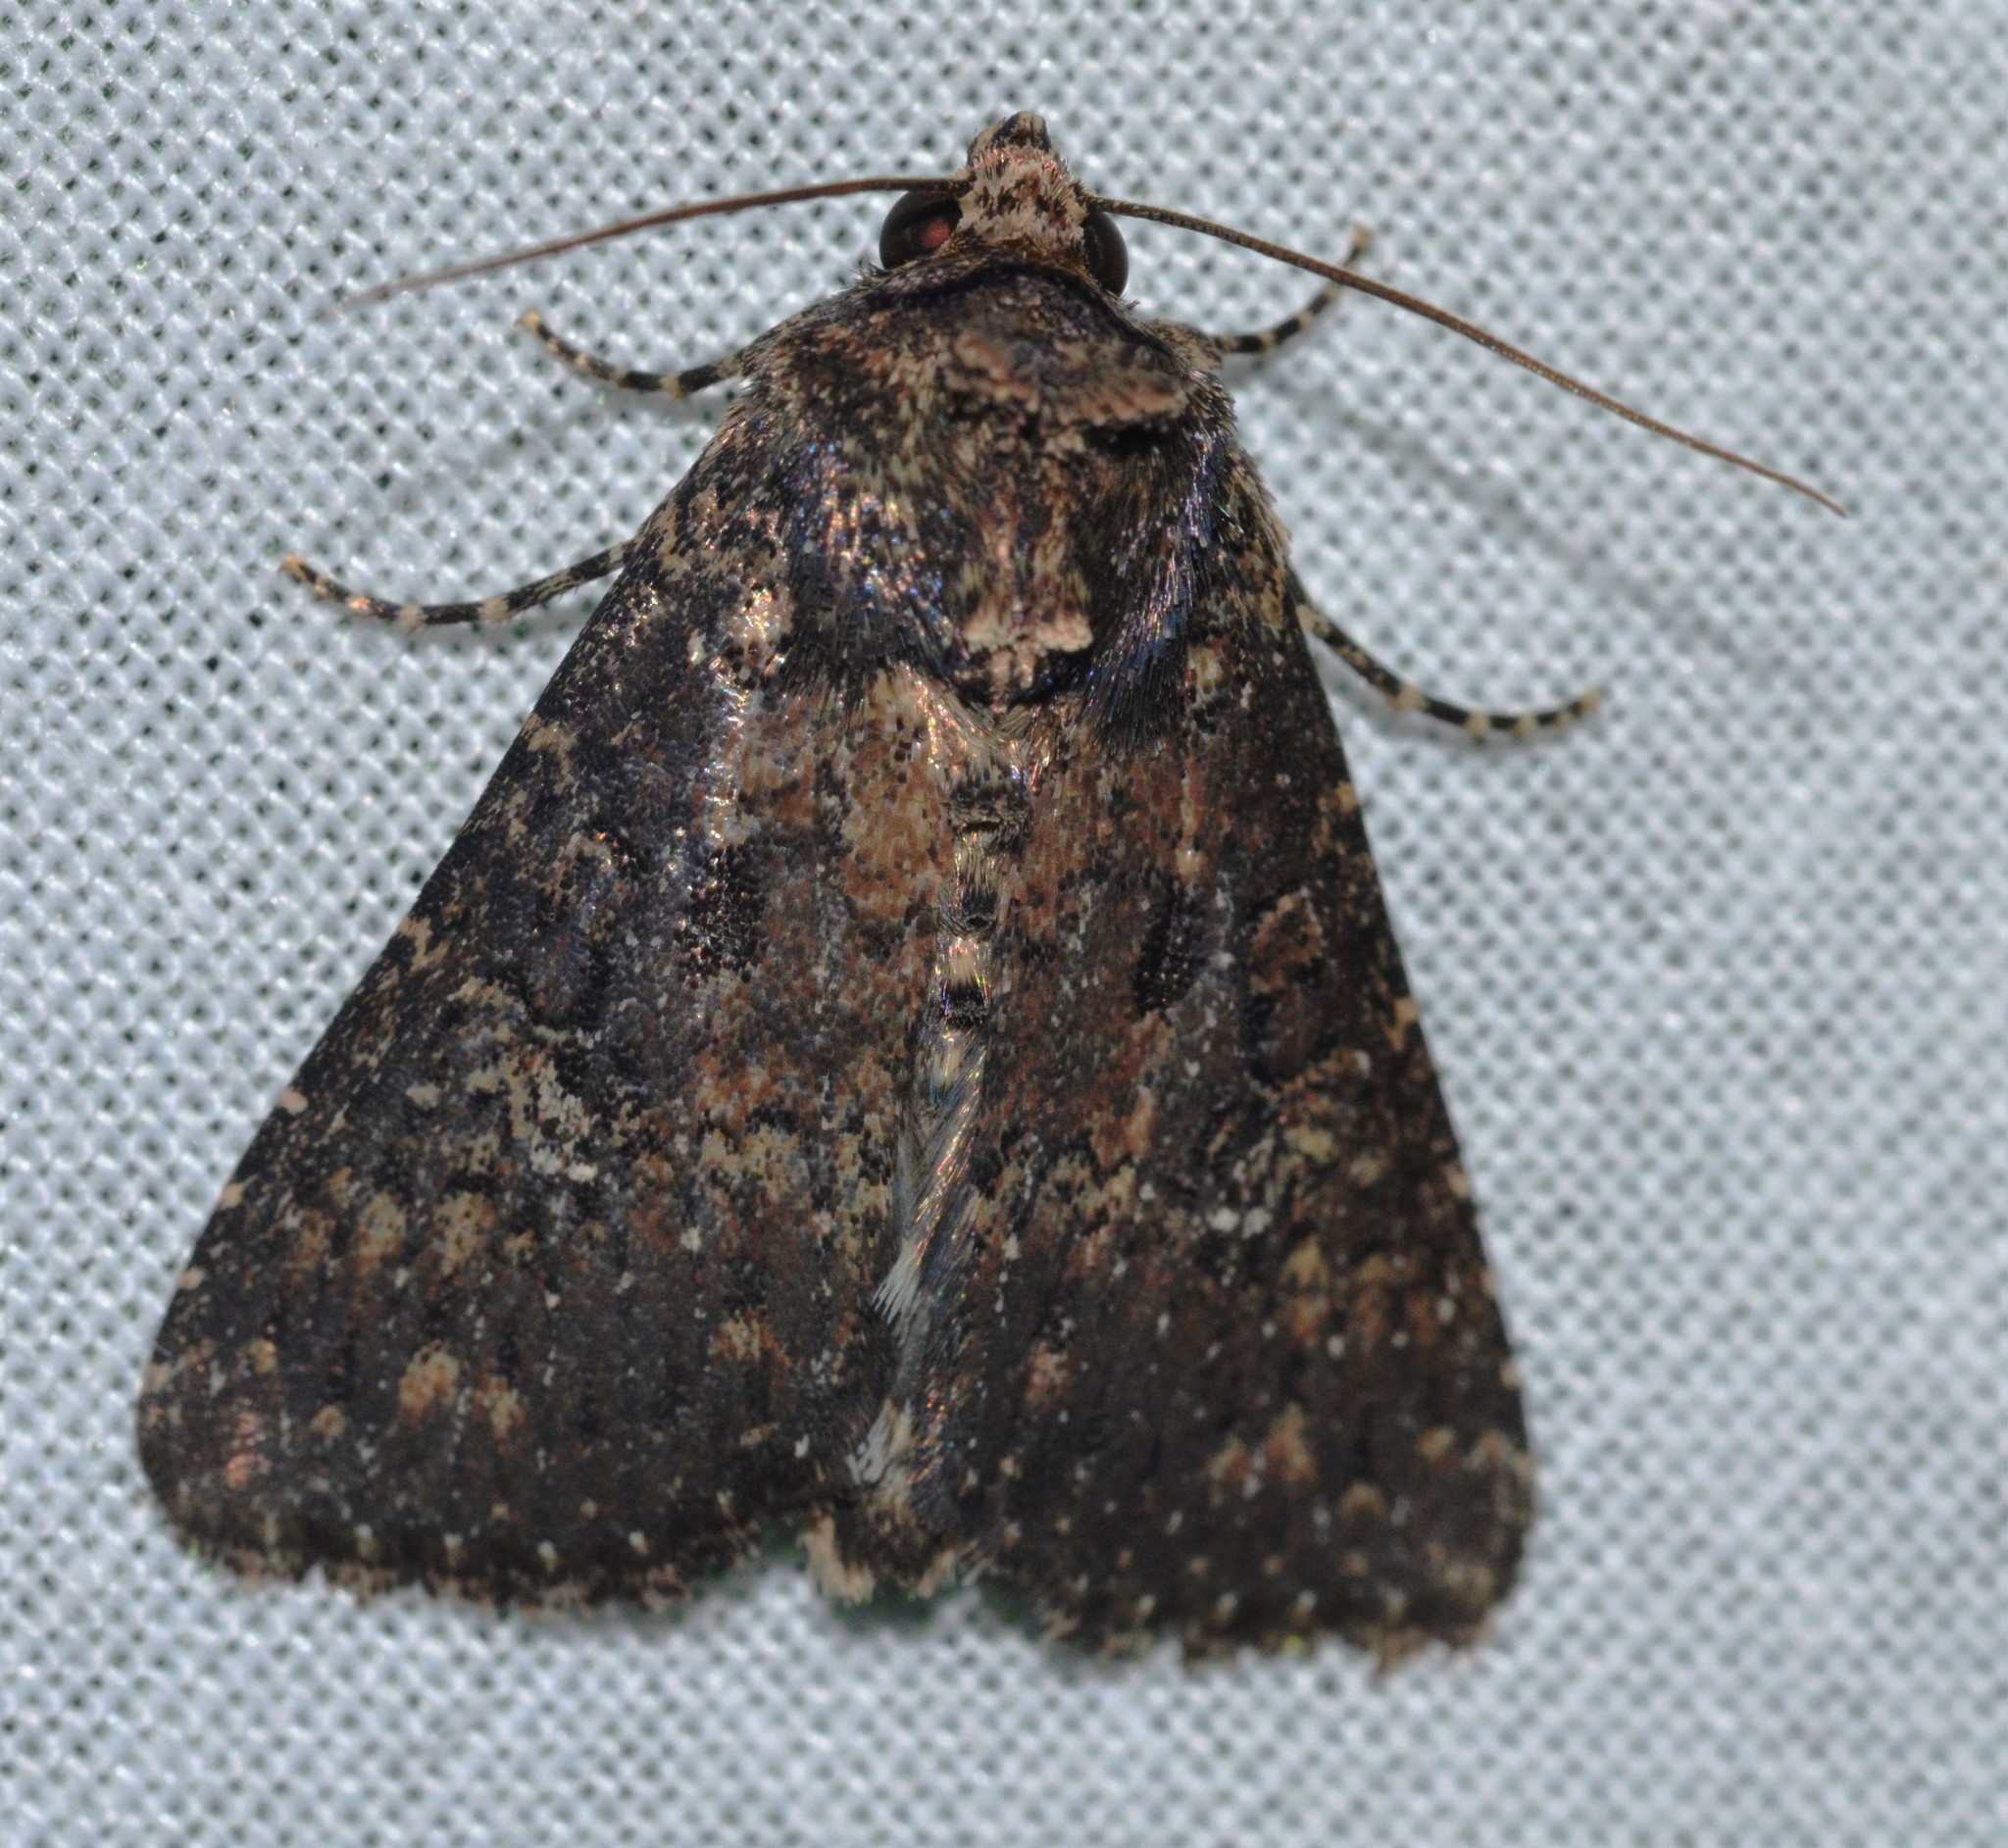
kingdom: Animalia
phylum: Arthropoda
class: Insecta
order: Lepidoptera
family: Noctuidae
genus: Condica
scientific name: Condica vecors
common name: Dusky groundling
